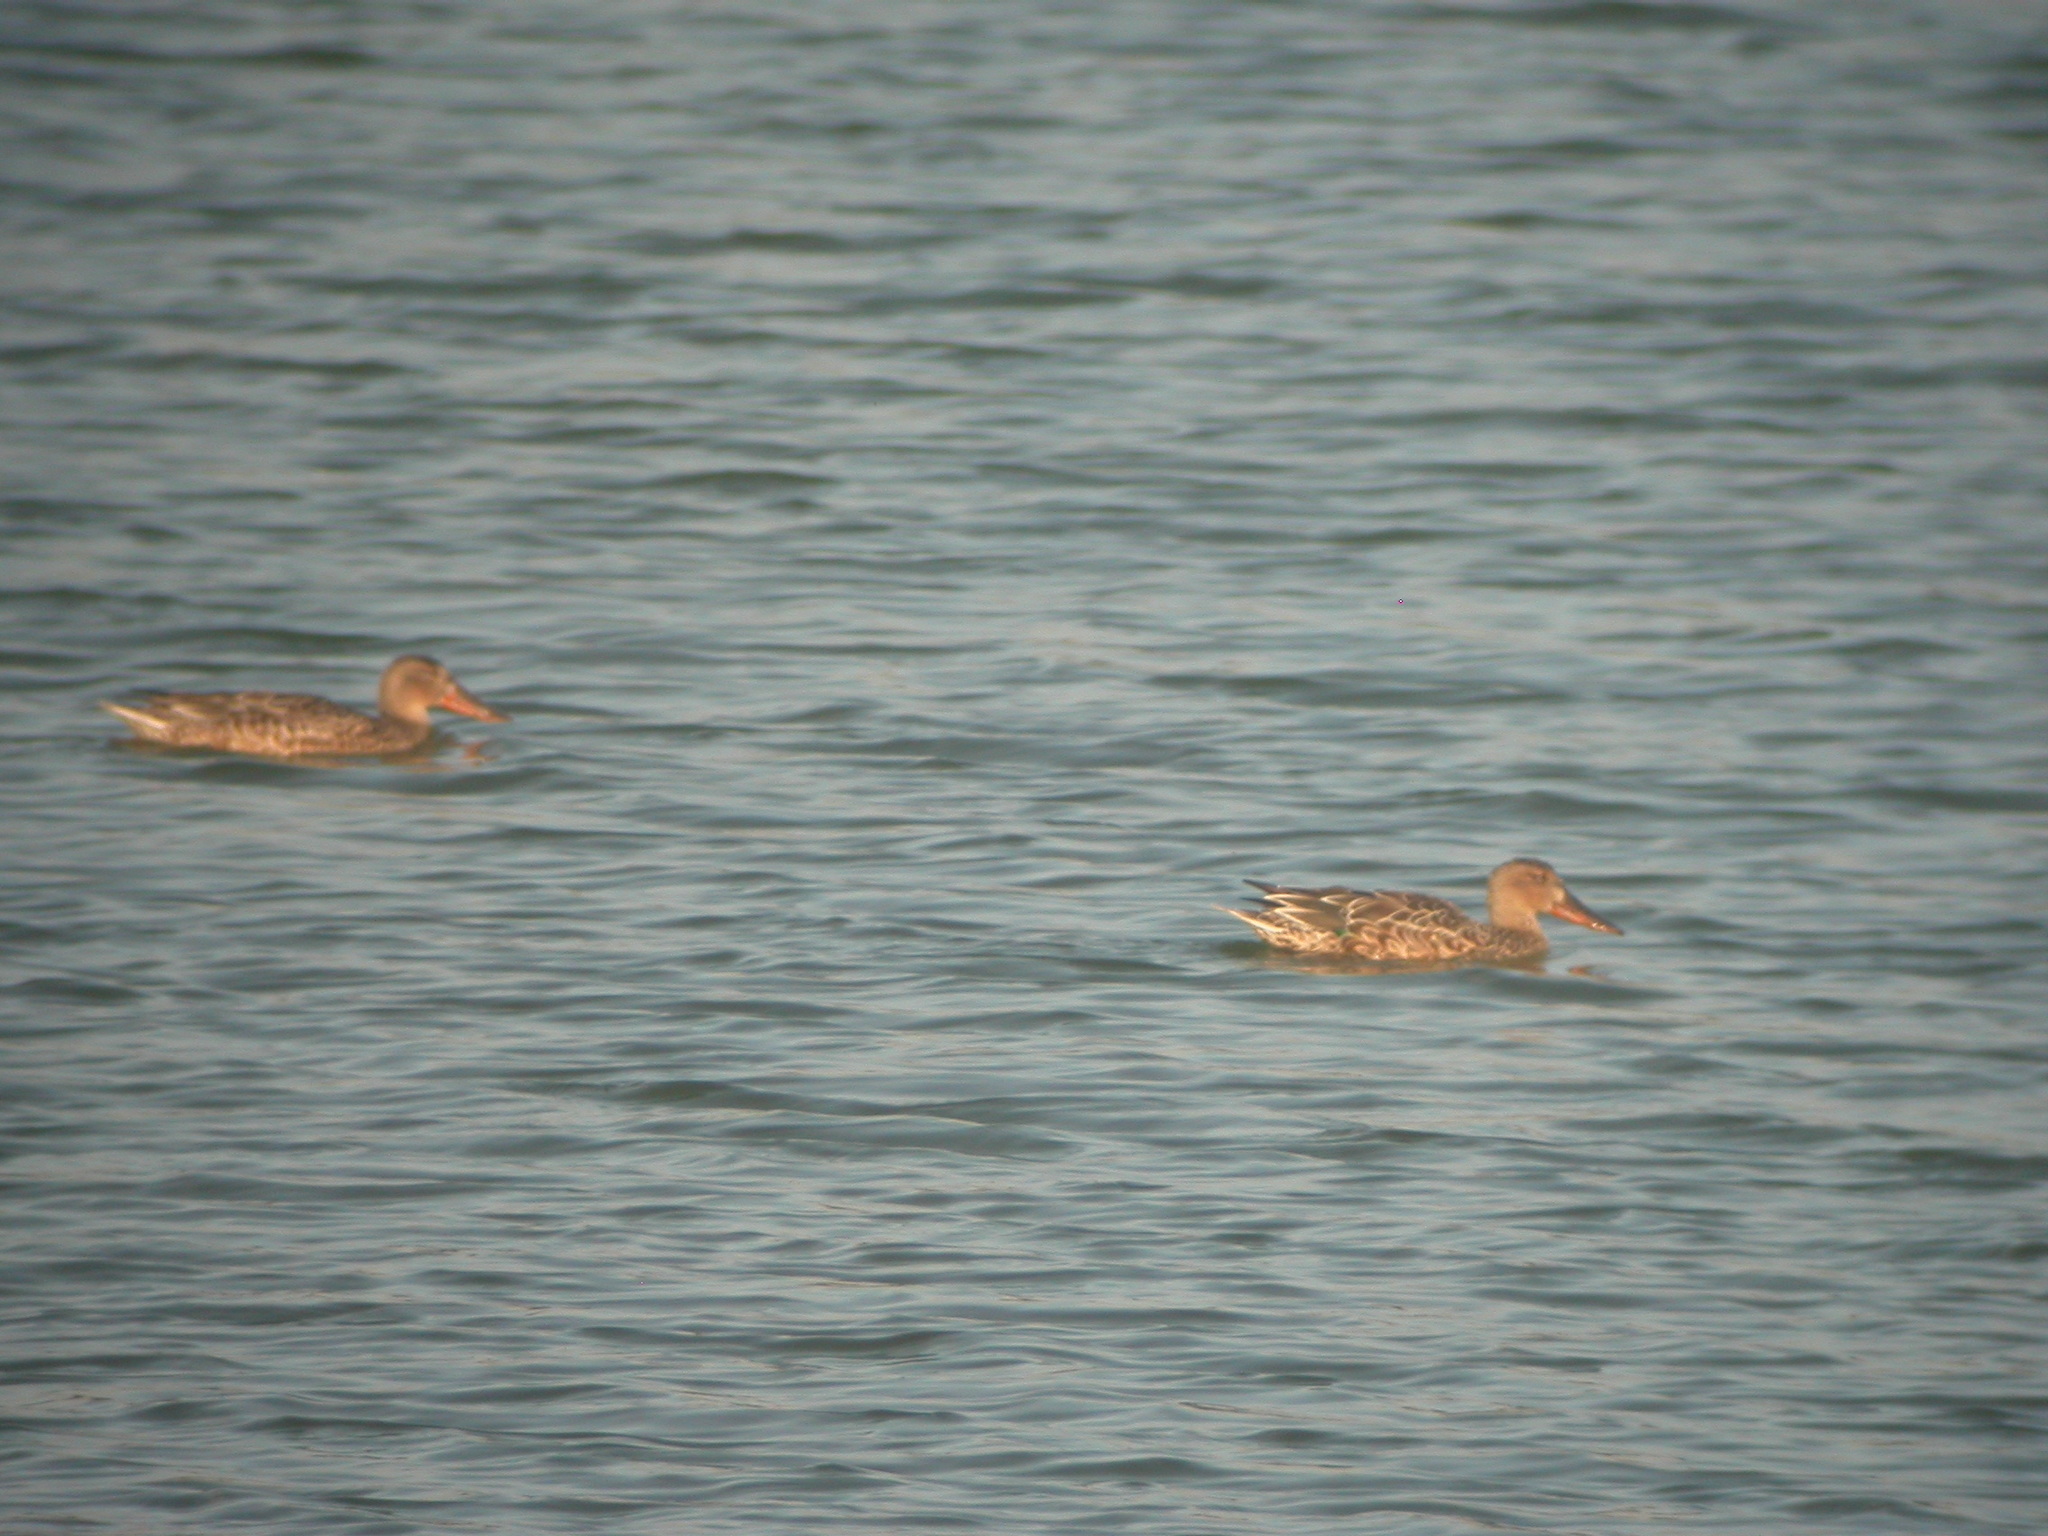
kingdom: Animalia
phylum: Chordata
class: Aves
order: Anseriformes
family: Anatidae
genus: Spatula
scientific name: Spatula clypeata
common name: Northern shoveler
